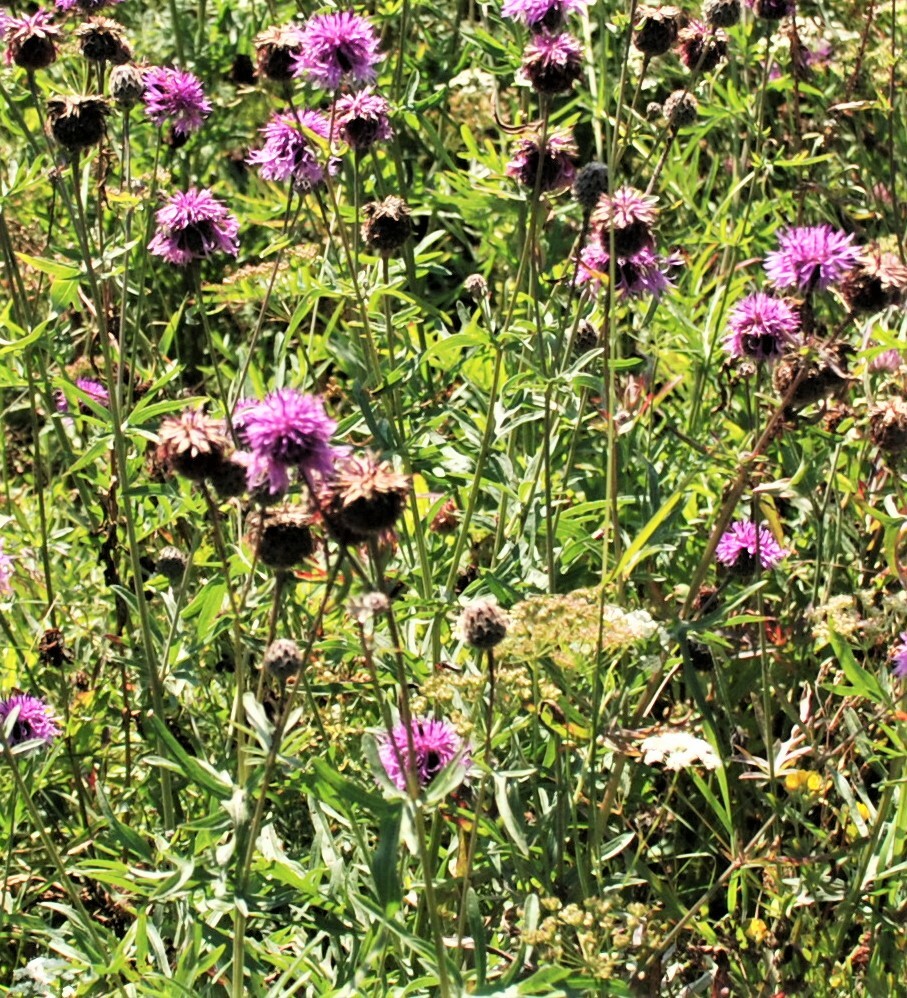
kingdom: Plantae
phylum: Tracheophyta
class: Magnoliopsida
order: Asterales
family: Asteraceae
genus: Centaurea
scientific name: Centaurea scabiosa
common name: Greater knapweed
